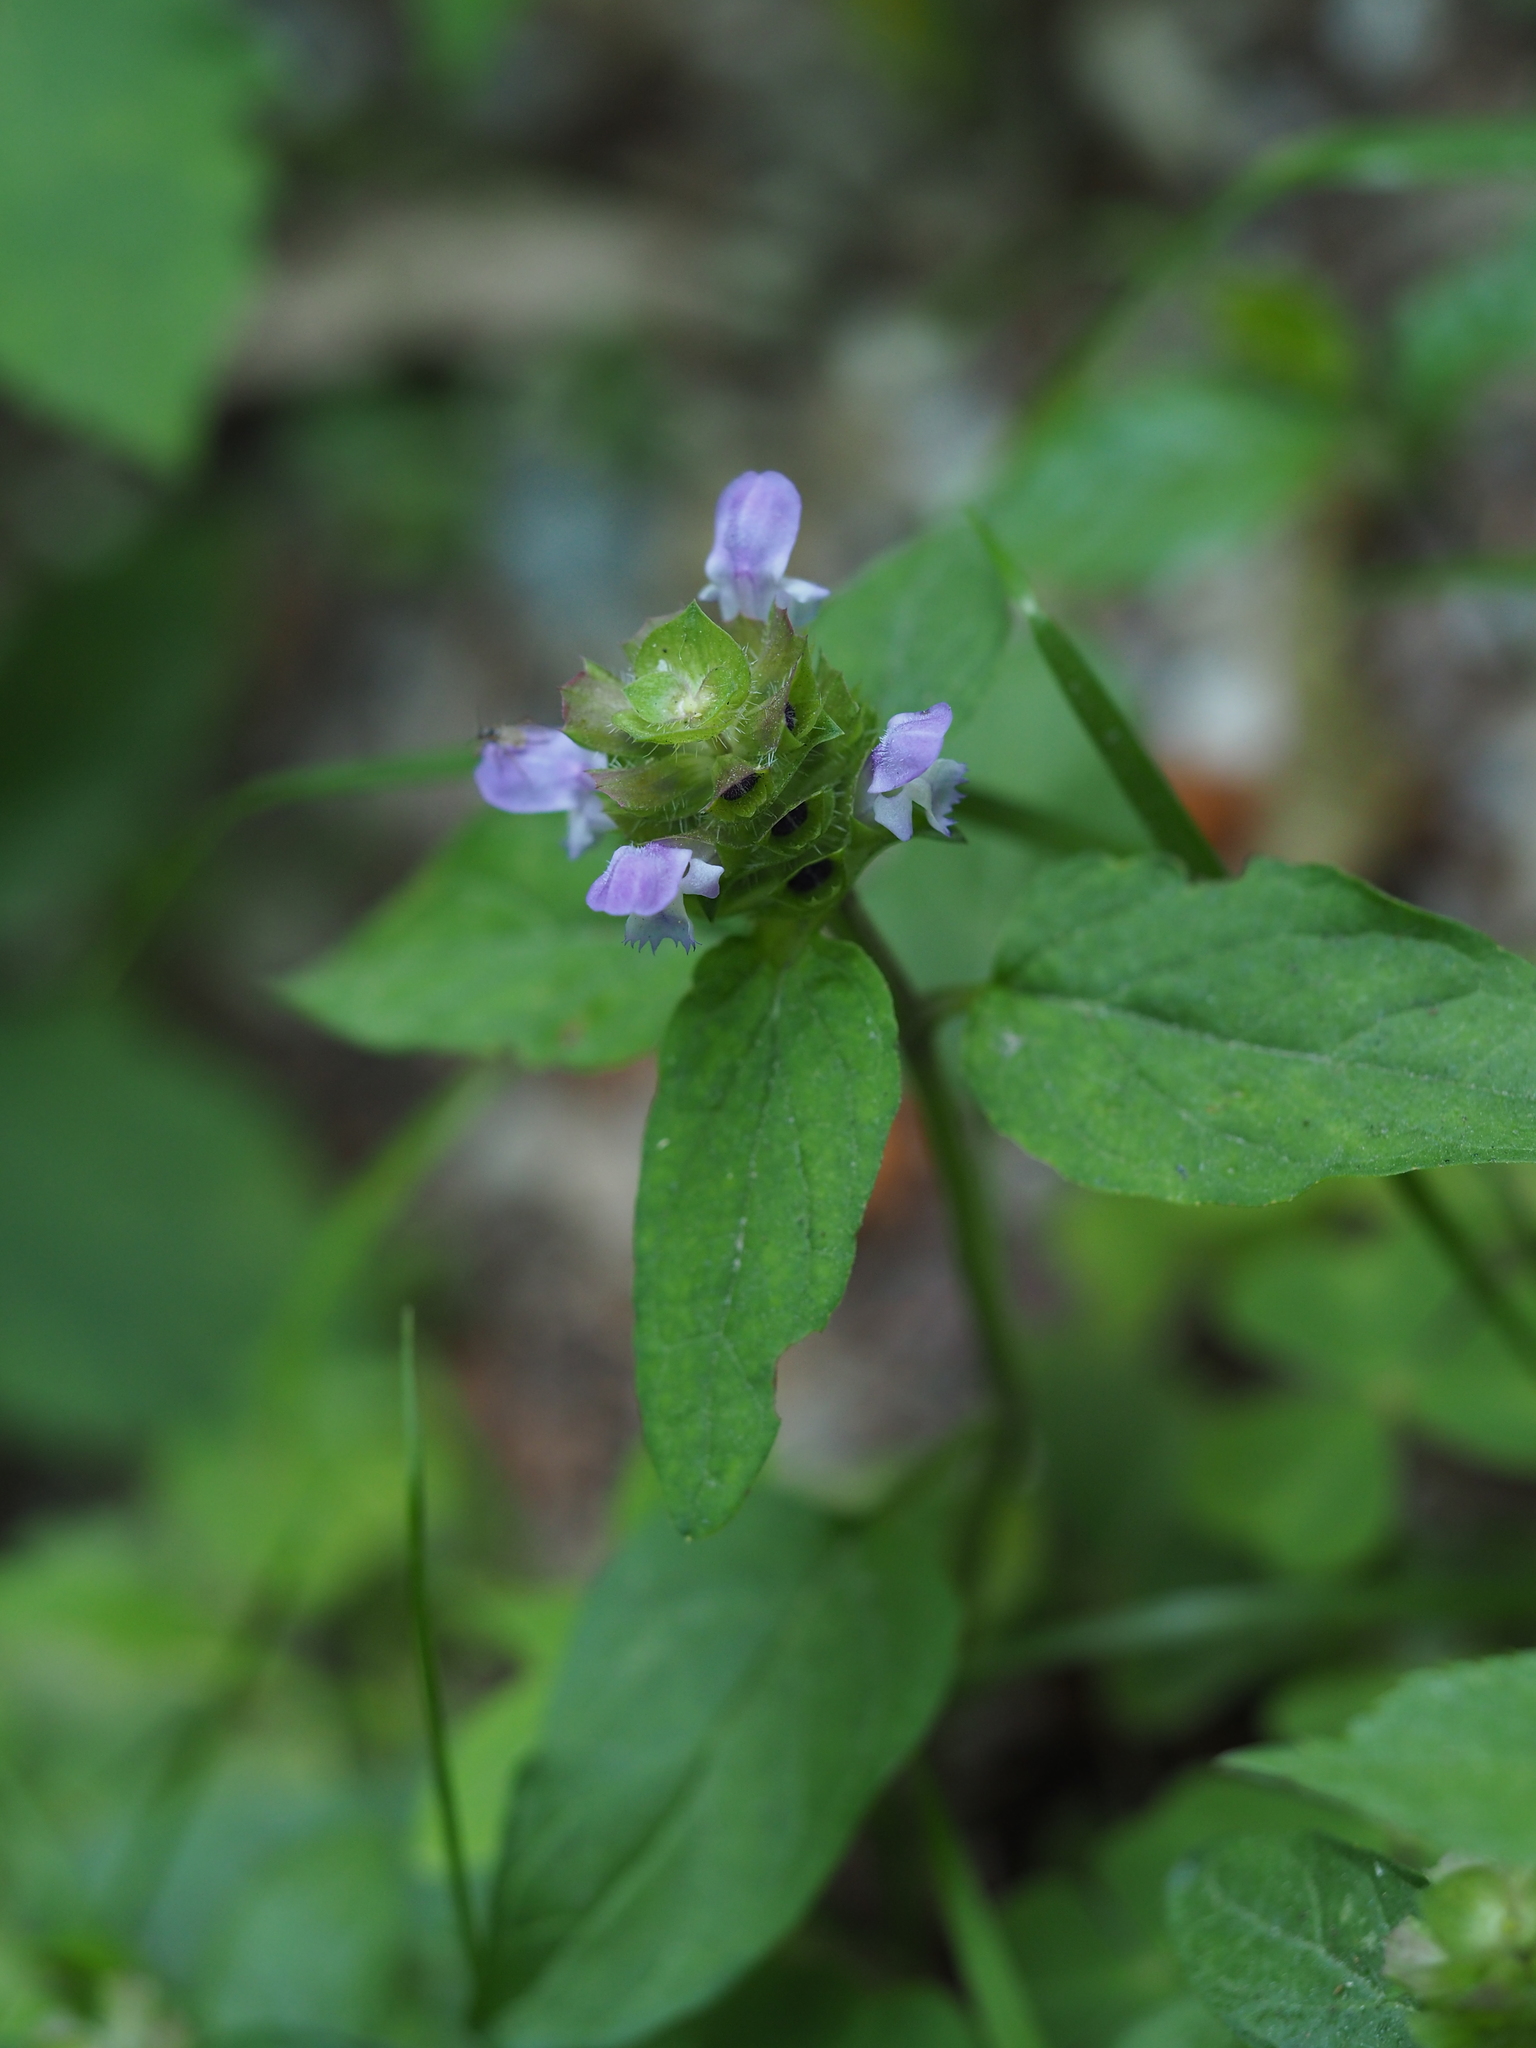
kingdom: Plantae
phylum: Tracheophyta
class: Magnoliopsida
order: Lamiales
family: Lamiaceae
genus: Prunella
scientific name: Prunella vulgaris
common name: Heal-all
